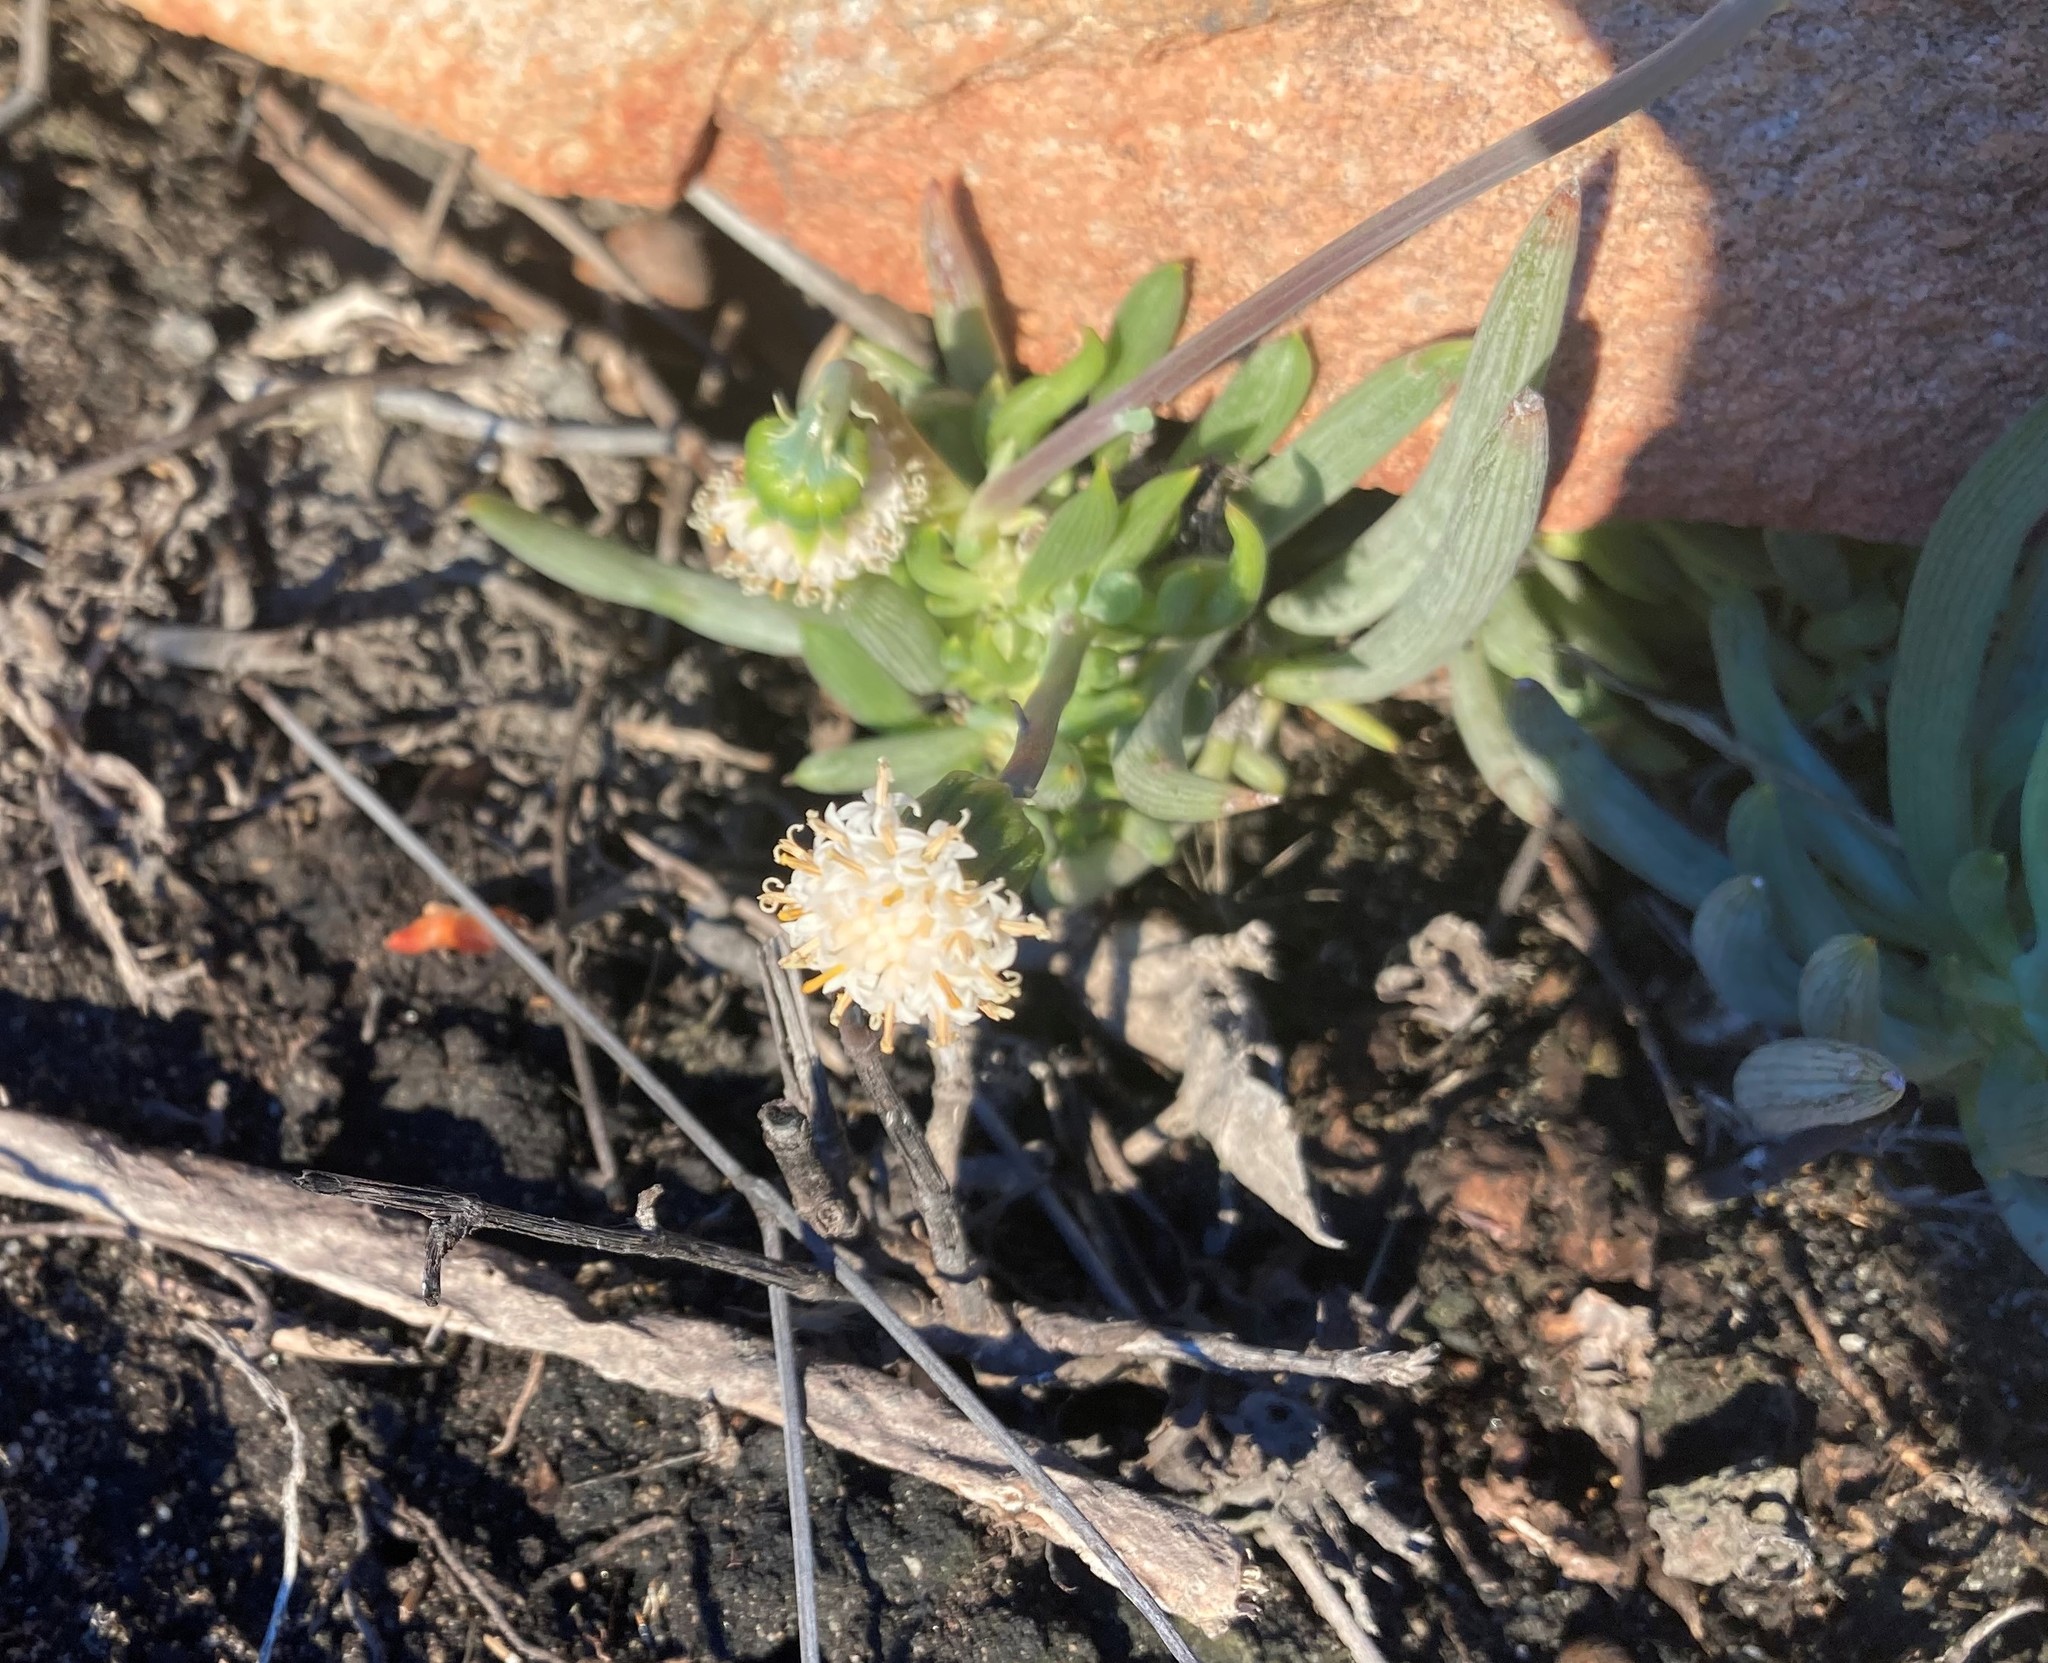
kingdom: Plantae
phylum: Tracheophyta
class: Magnoliopsida
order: Asterales
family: Asteraceae
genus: Curio
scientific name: Curio talinoides
